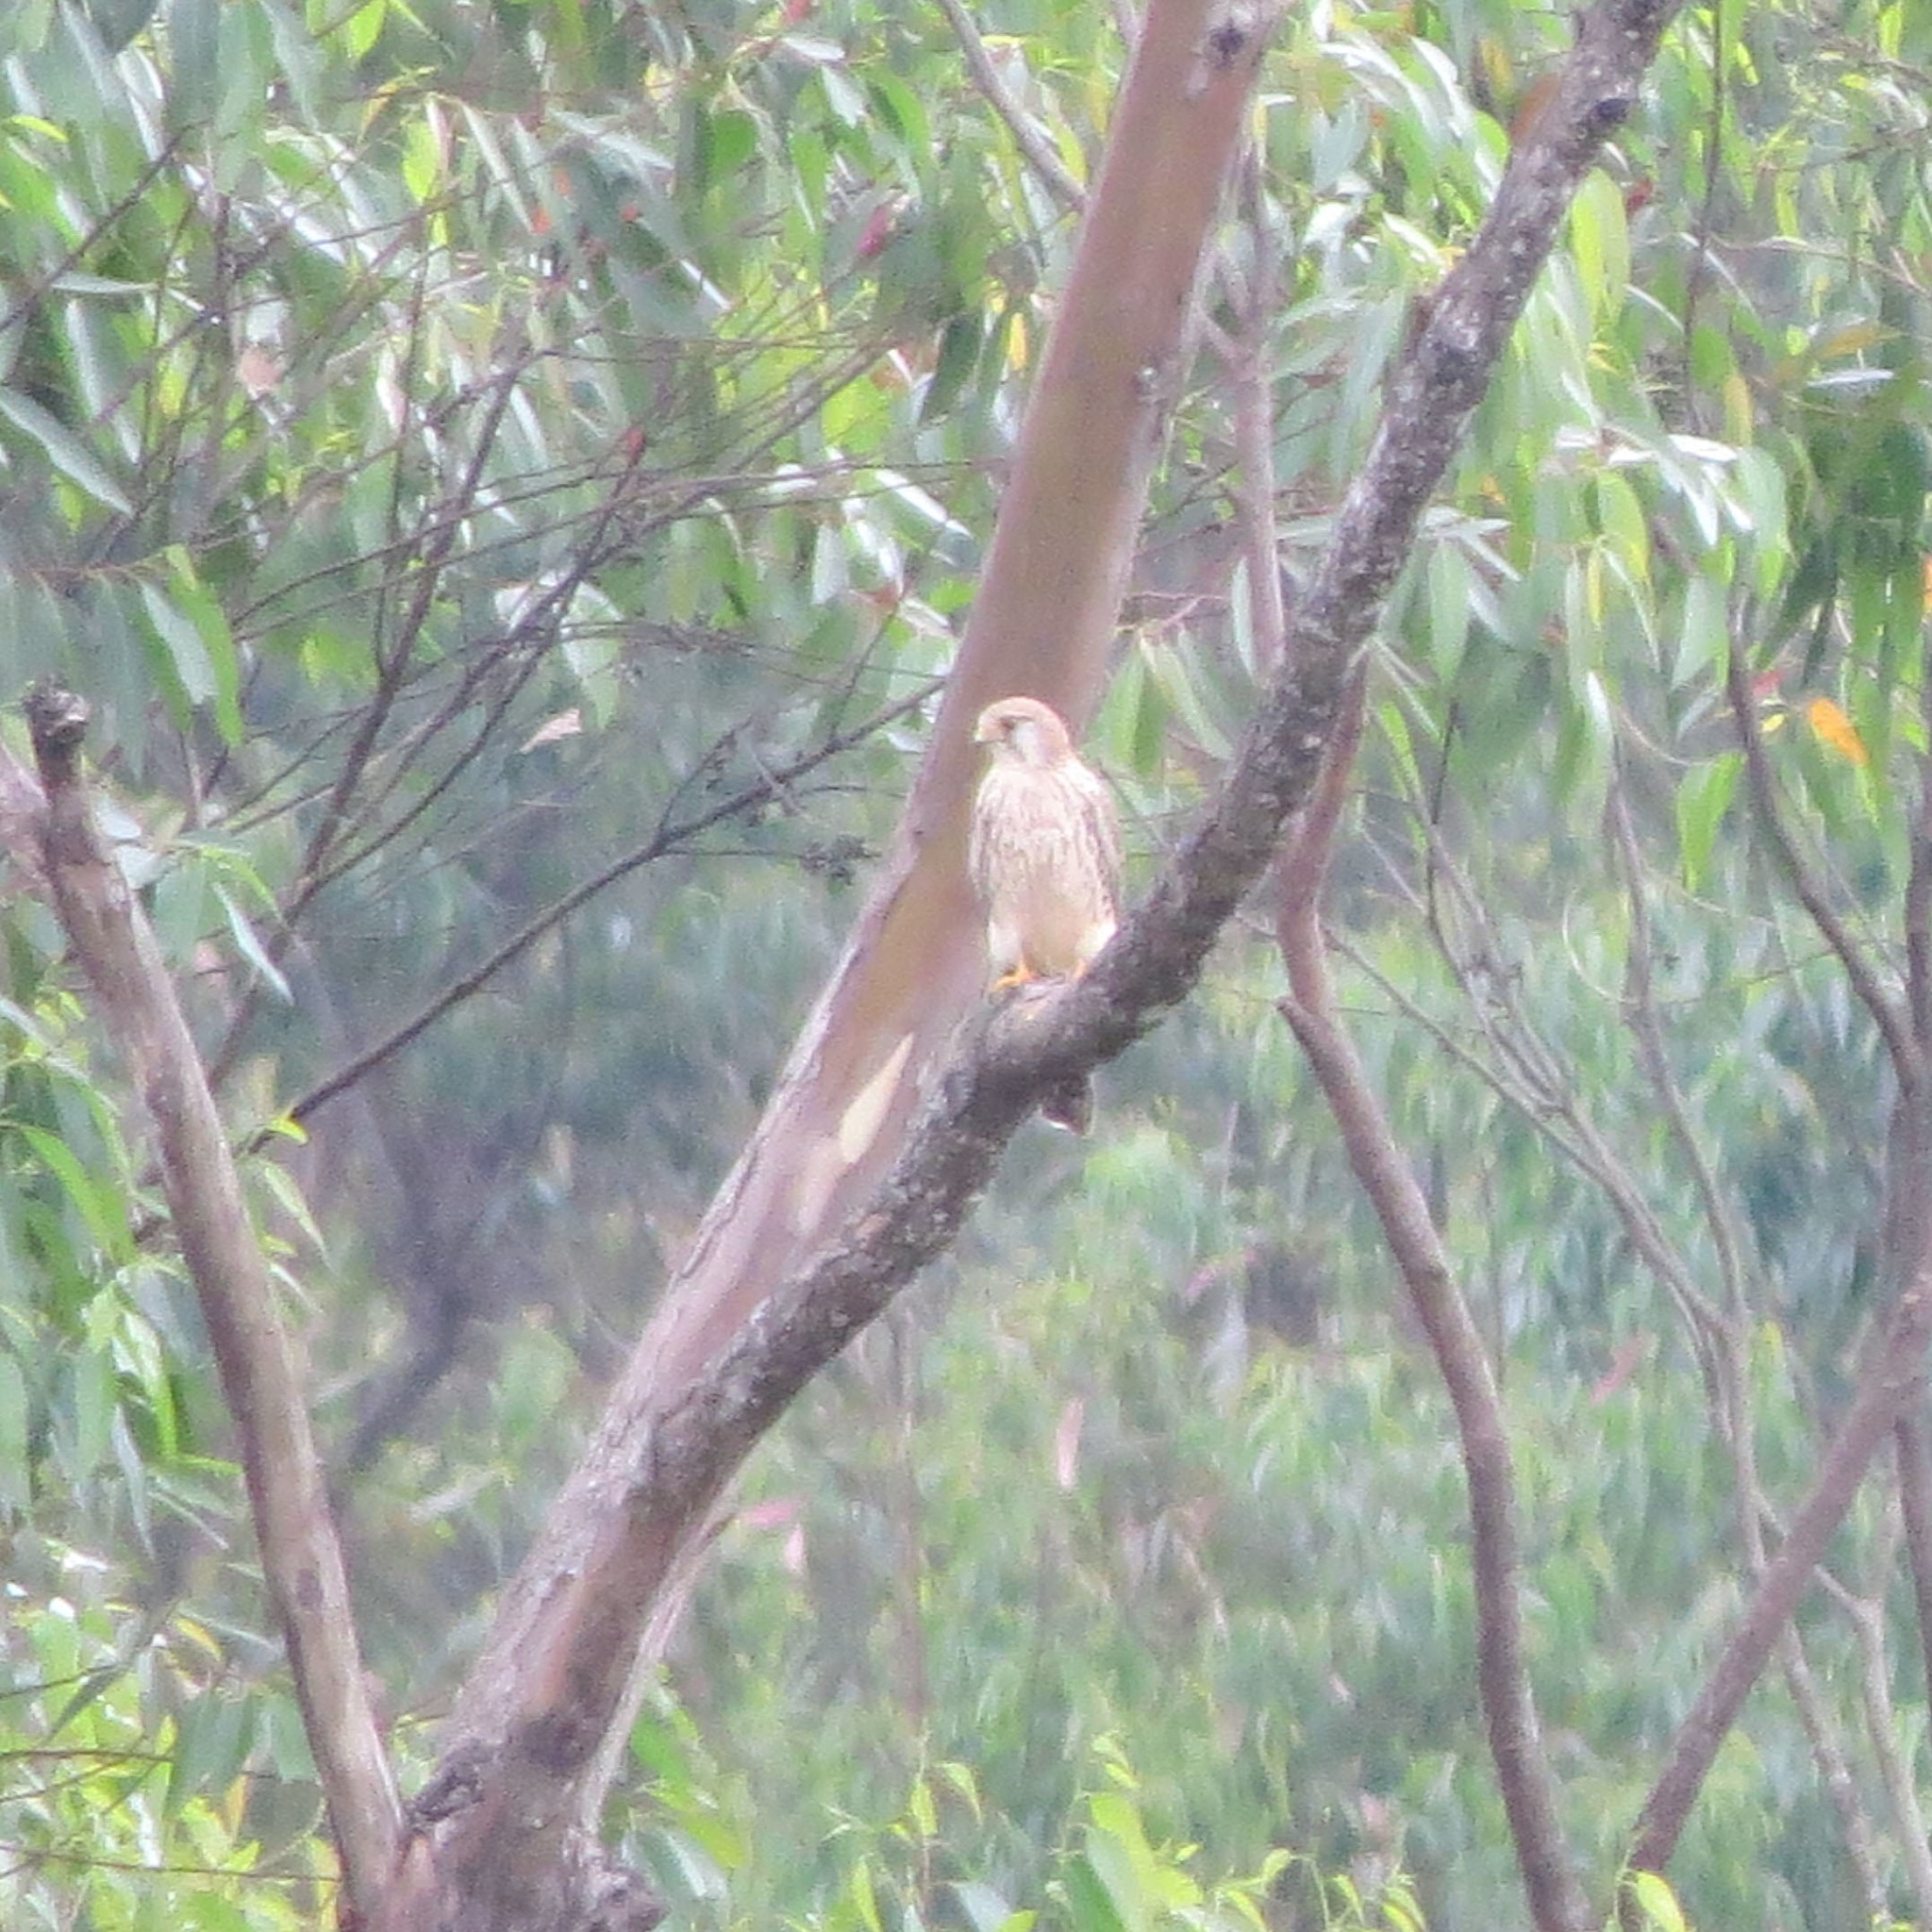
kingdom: Animalia
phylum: Chordata
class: Aves
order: Falconiformes
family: Falconidae
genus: Falco
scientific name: Falco tinnunculus
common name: Common kestrel
